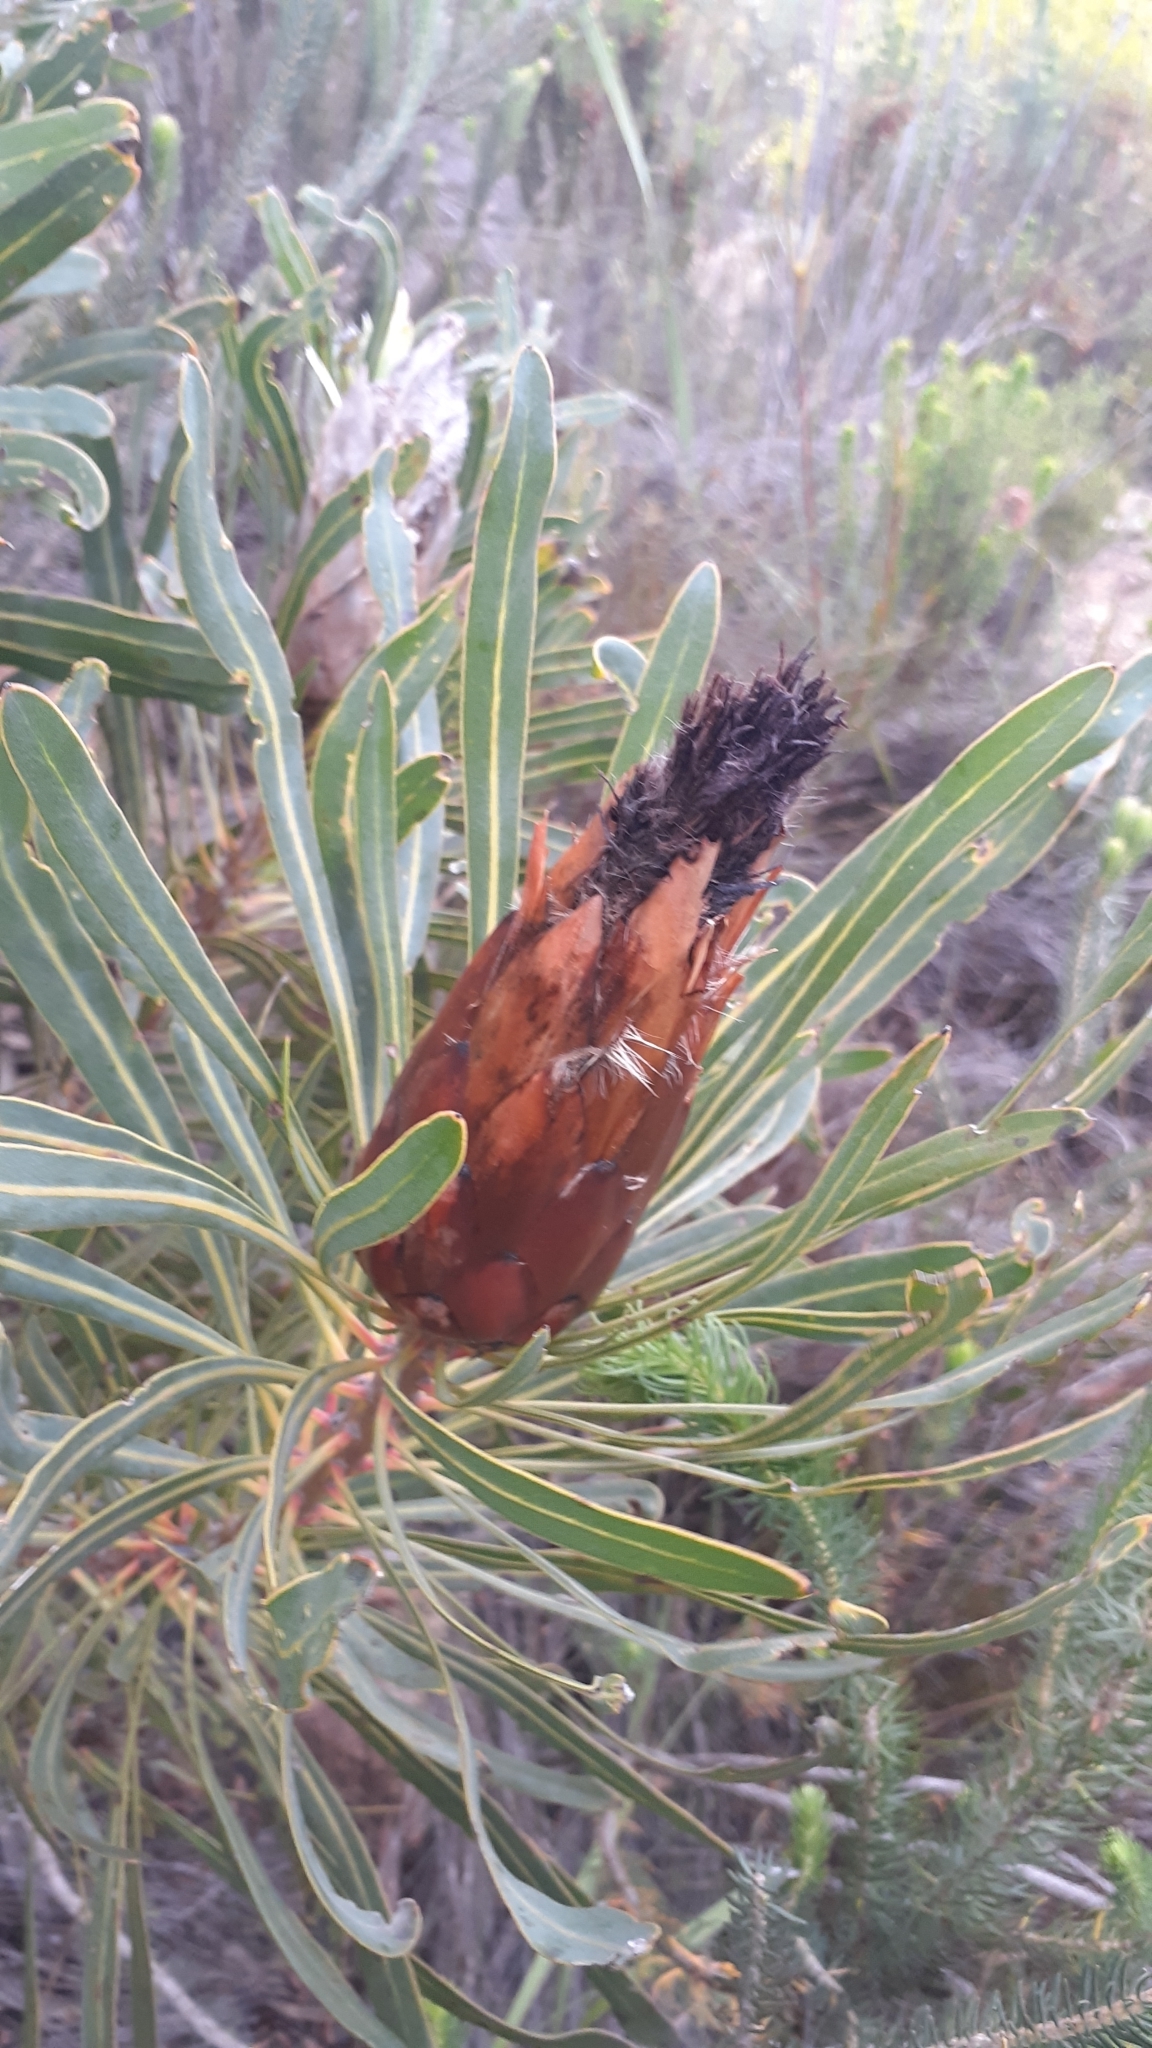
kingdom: Plantae
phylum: Tracheophyta
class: Magnoliopsida
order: Proteales
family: Proteaceae
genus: Protea
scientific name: Protea longifolia
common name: Long-leaf sugarbush
